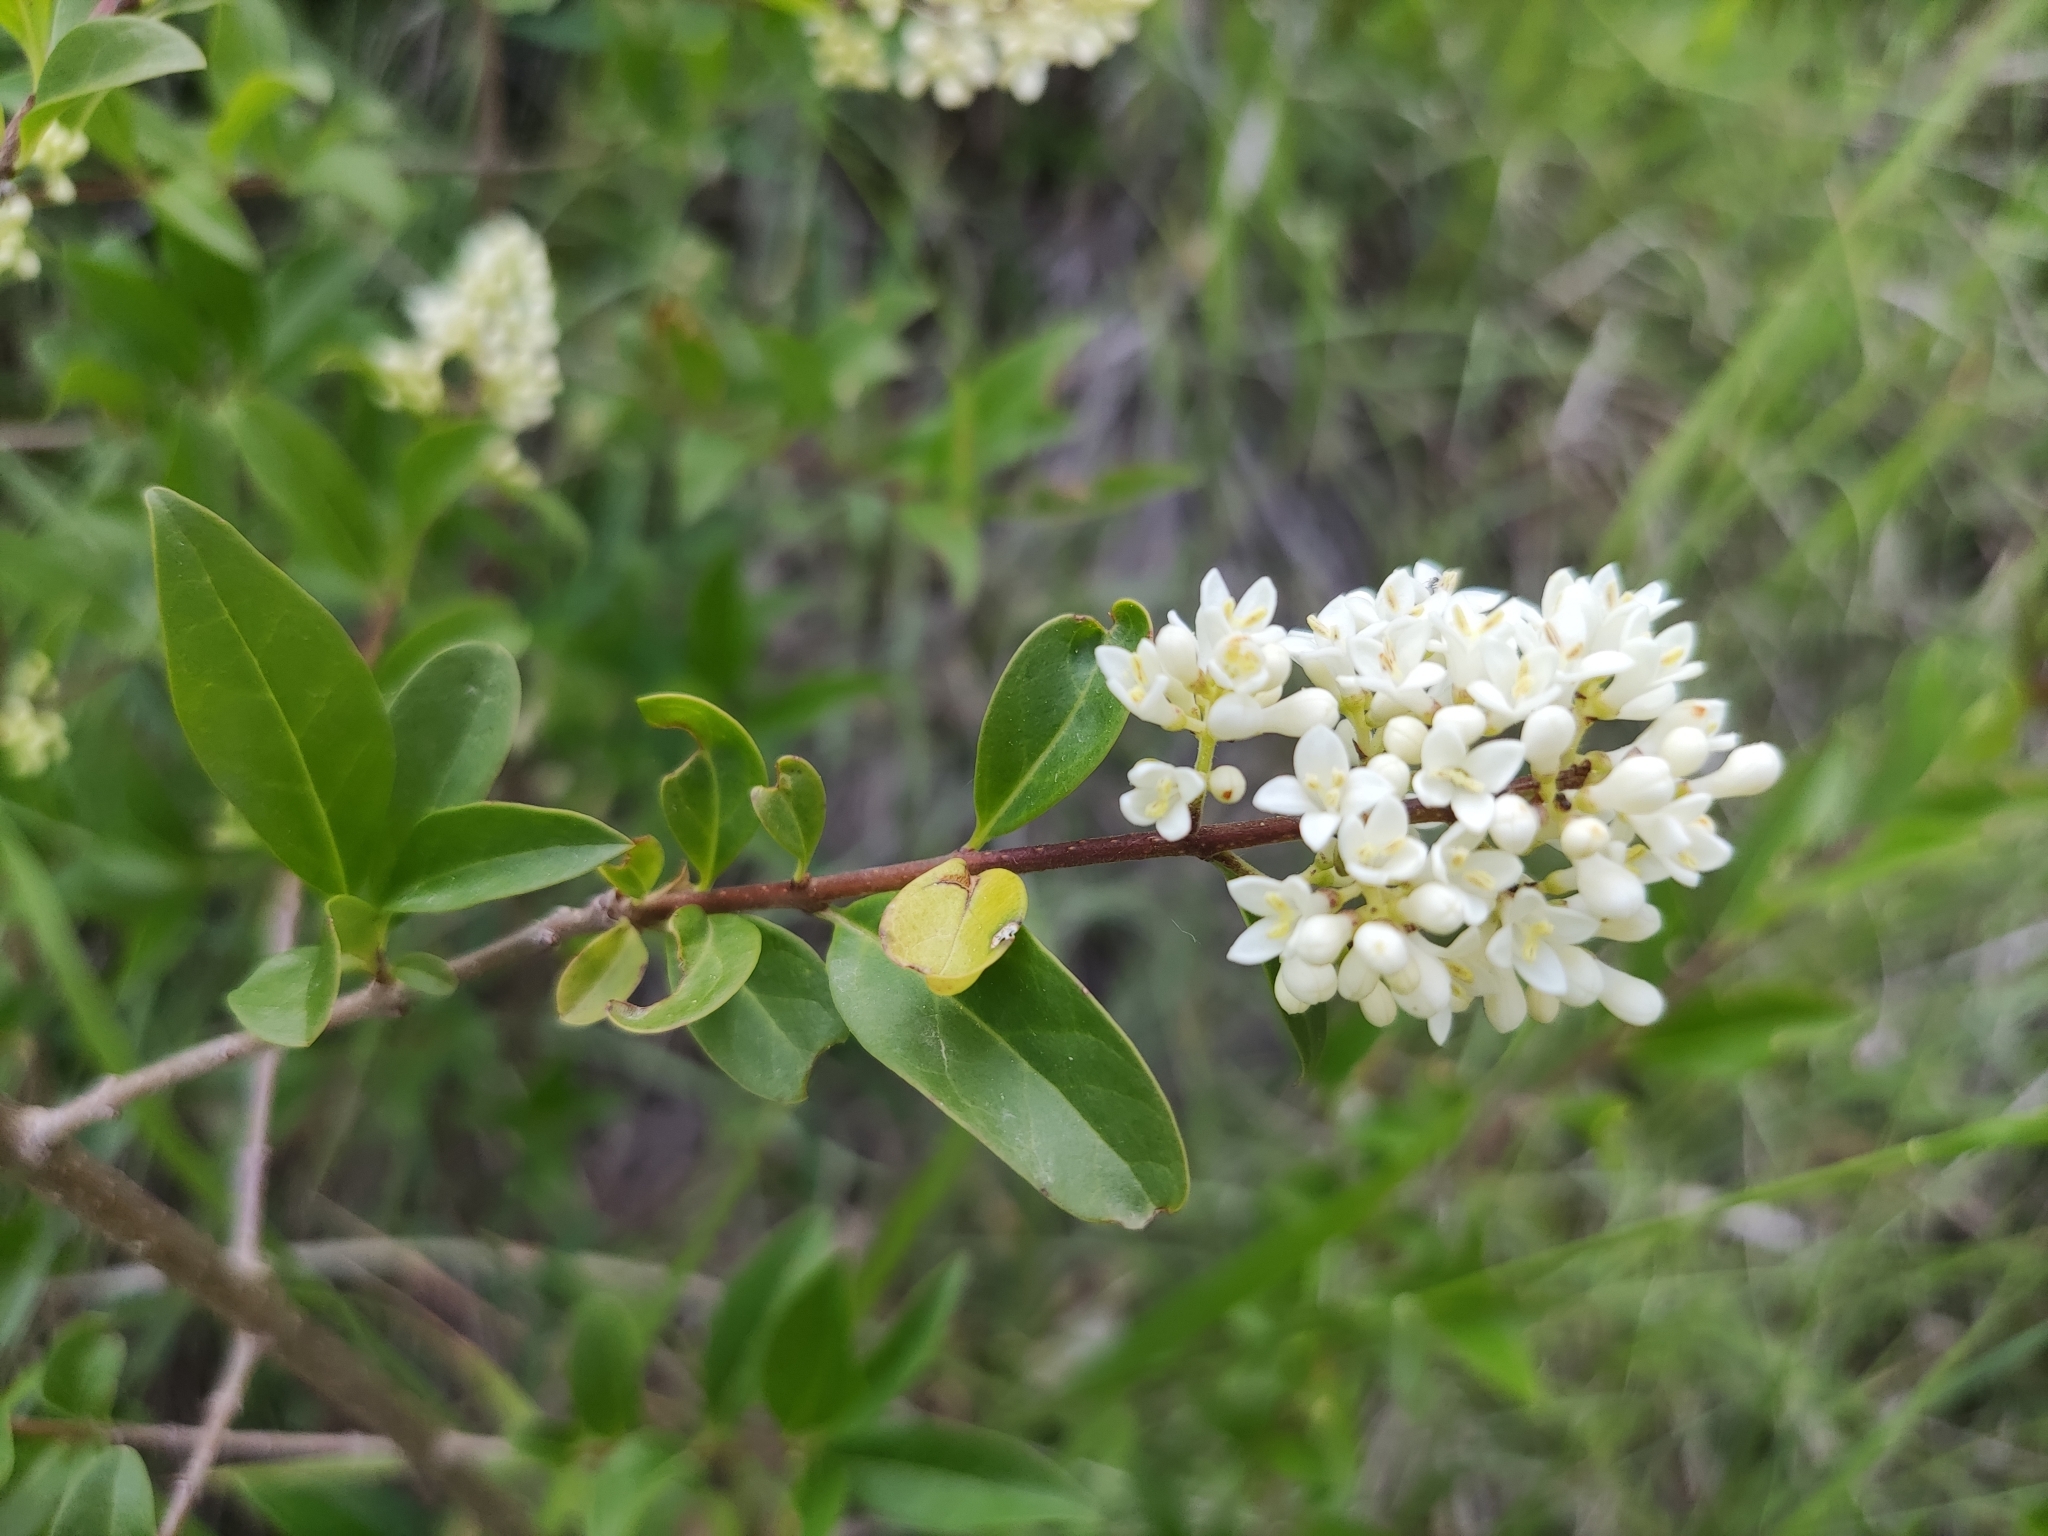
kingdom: Plantae
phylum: Tracheophyta
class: Magnoliopsida
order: Lamiales
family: Oleaceae
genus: Ligustrum
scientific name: Ligustrum vulgare
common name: Wild privet
